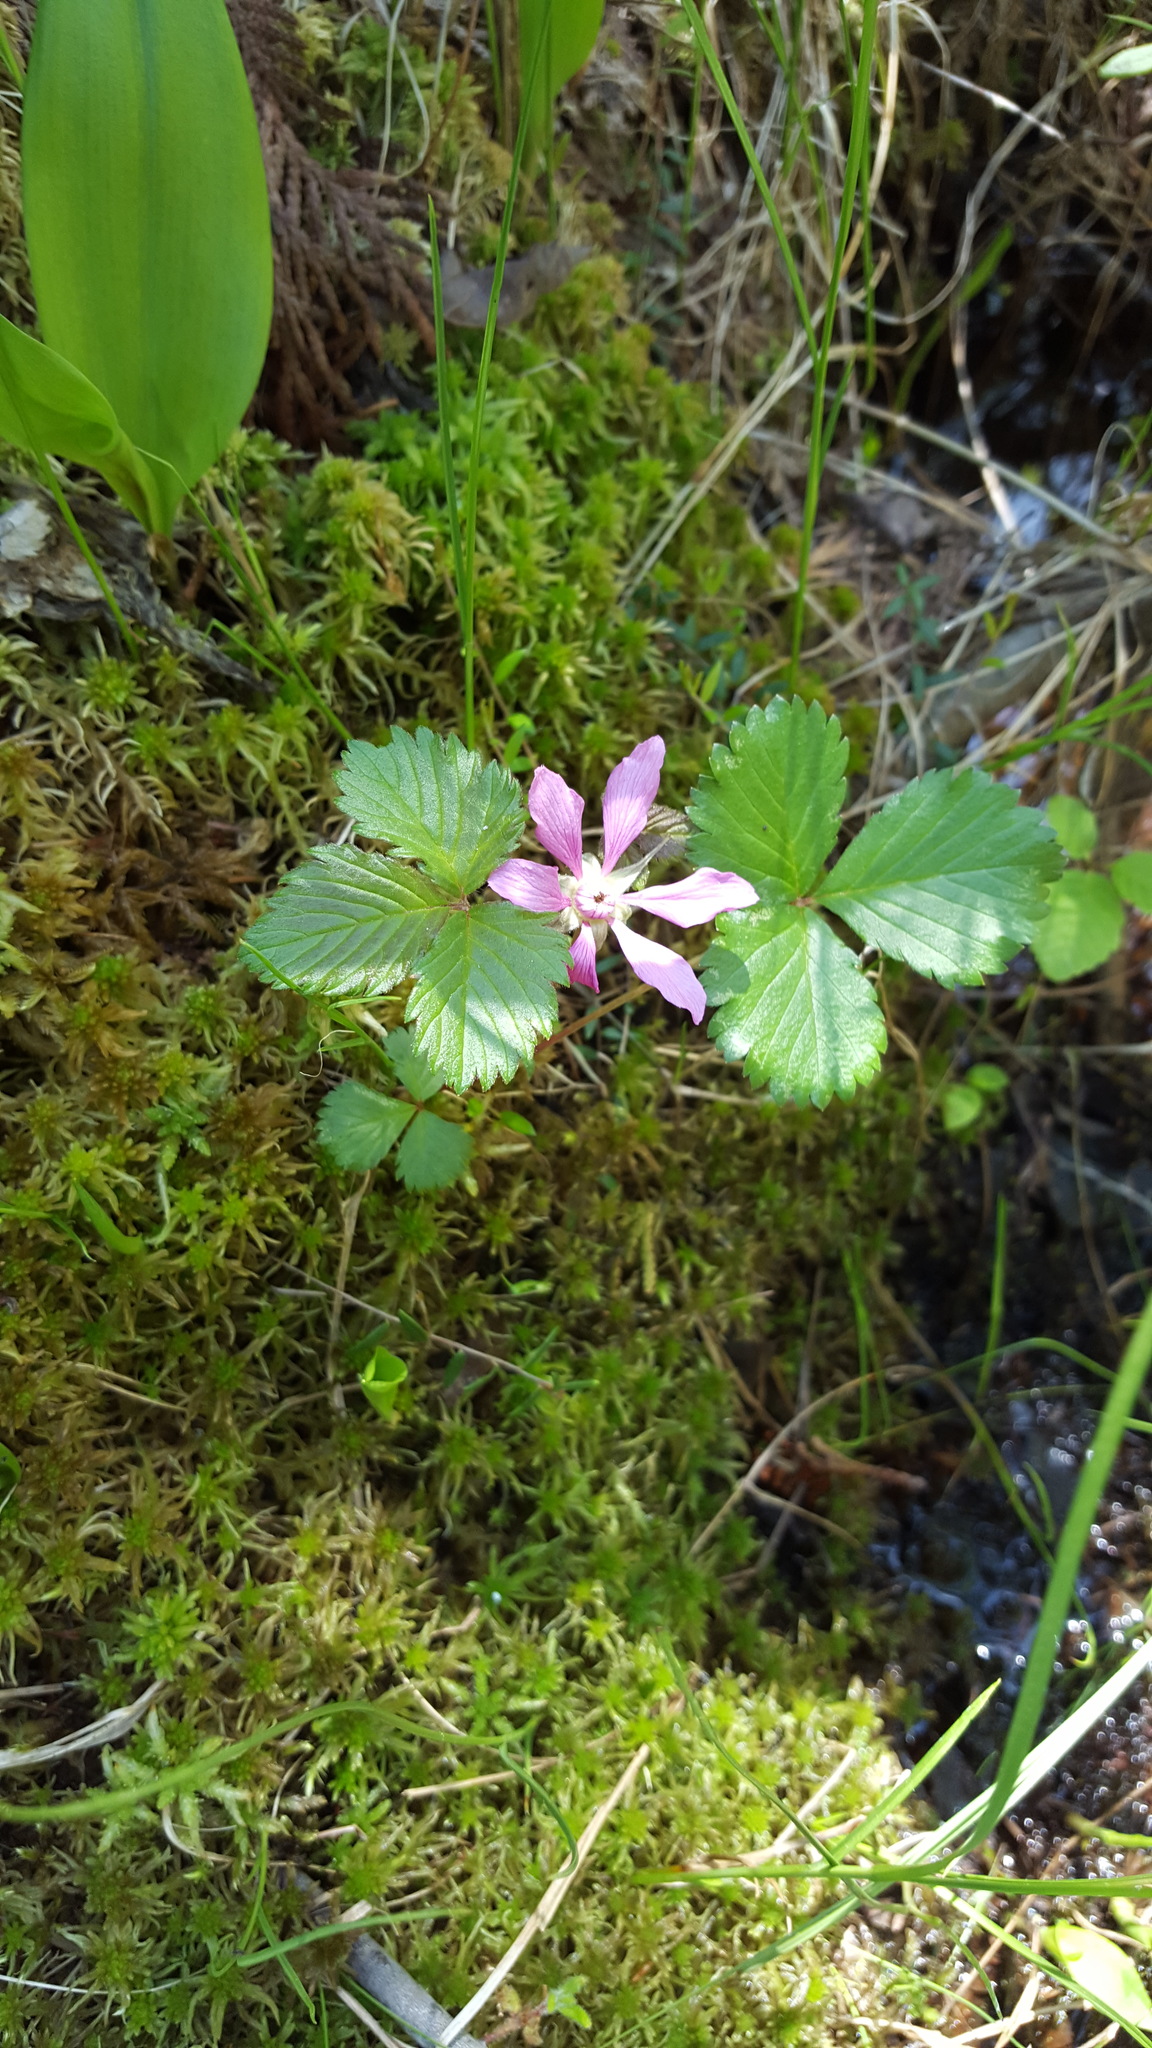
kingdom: Plantae
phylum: Tracheophyta
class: Magnoliopsida
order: Rosales
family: Rosaceae
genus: Rubus
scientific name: Rubus arcticus
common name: Arctic bramble
